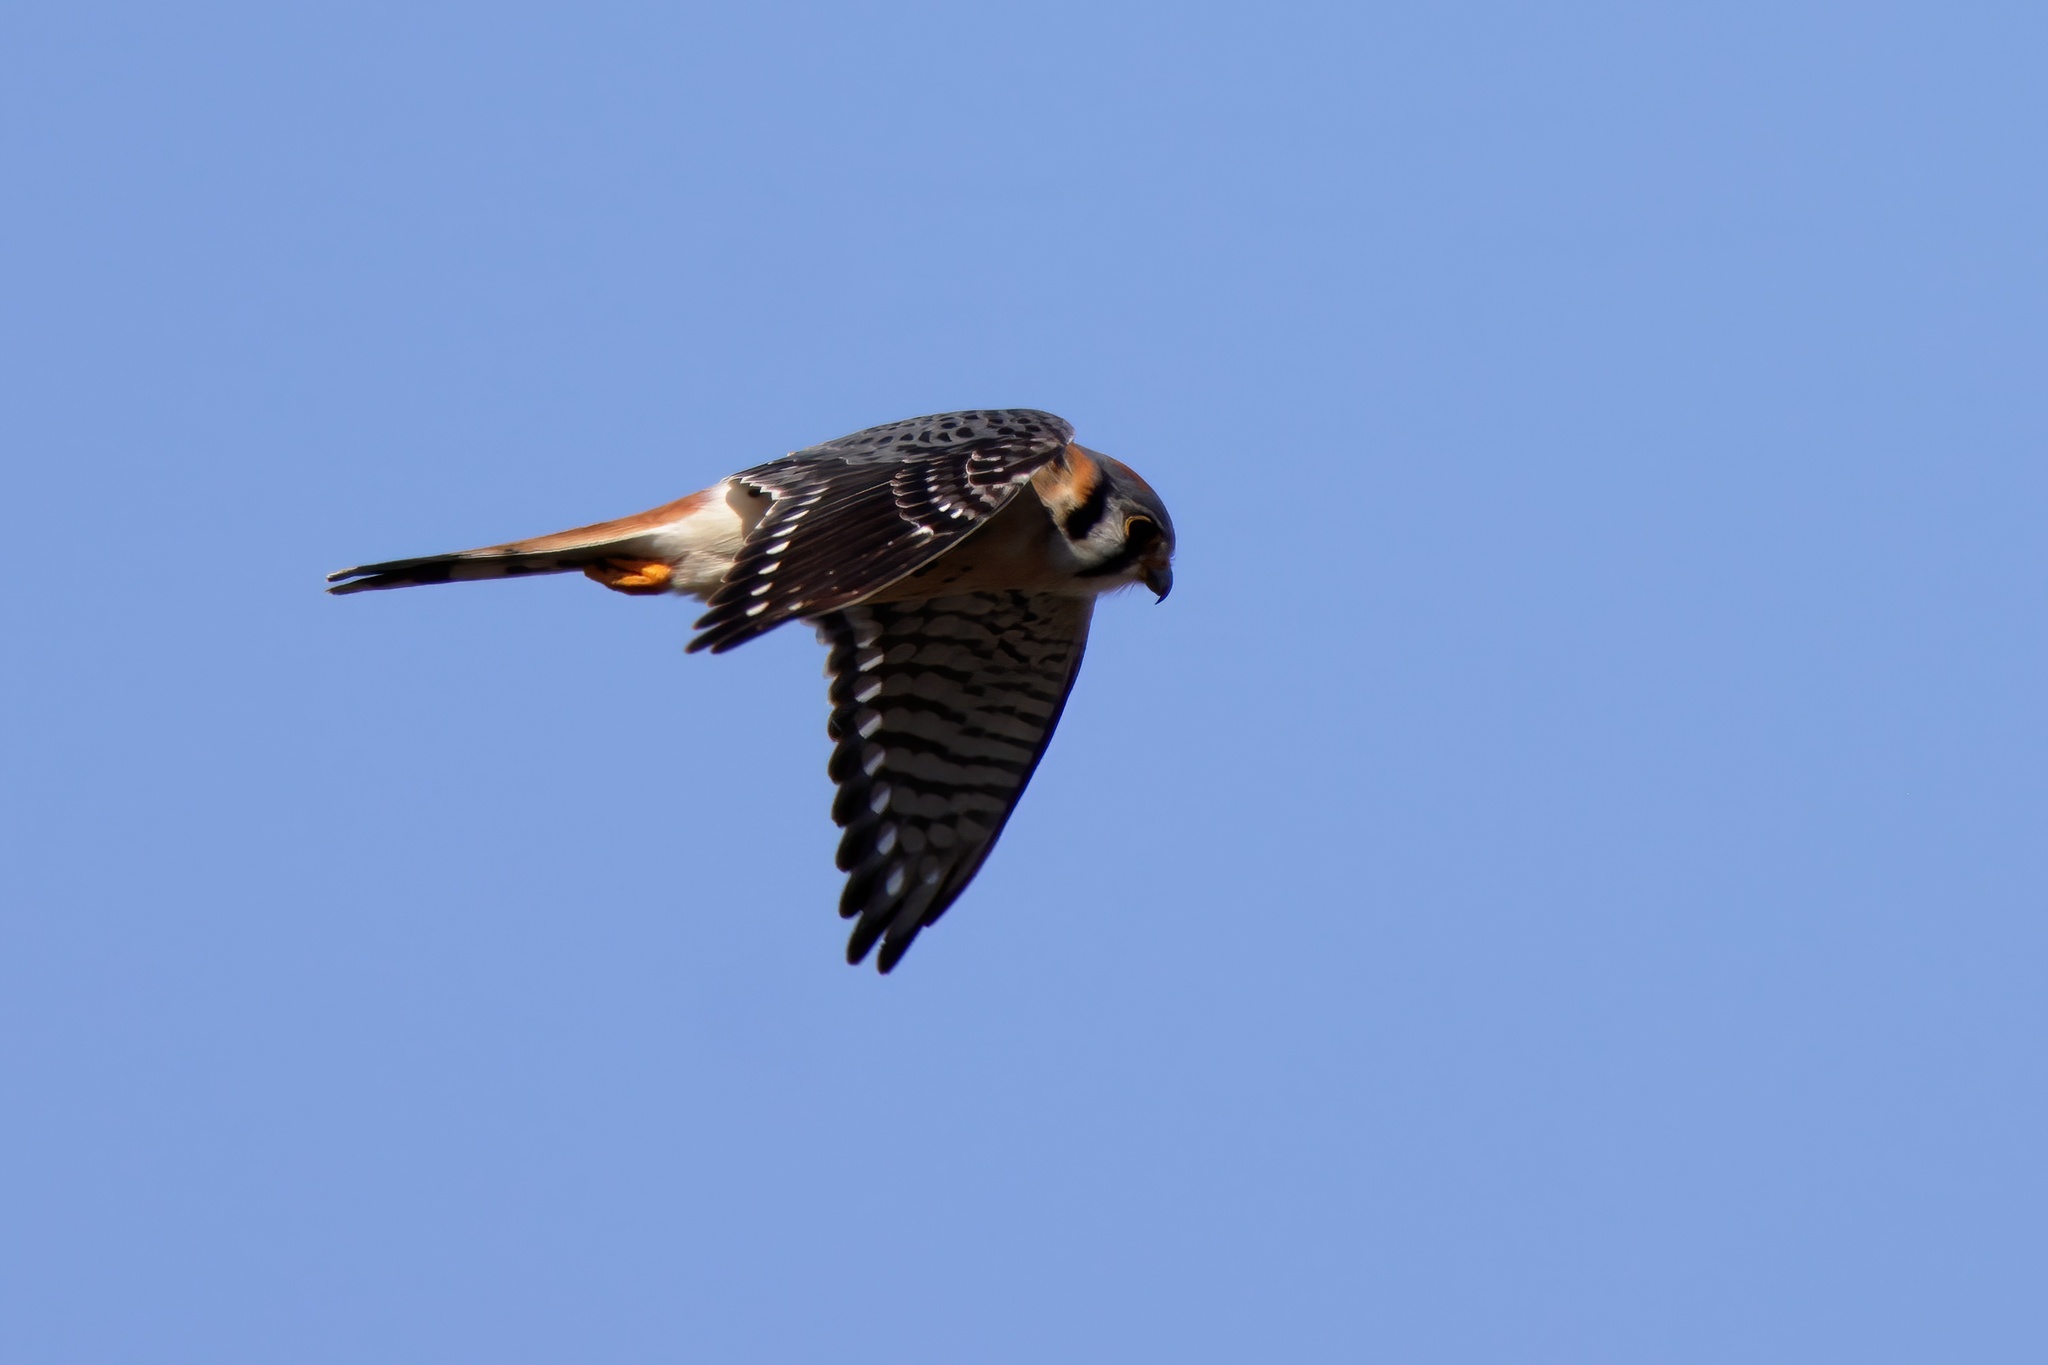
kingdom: Animalia
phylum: Chordata
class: Aves
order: Falconiformes
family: Falconidae
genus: Falco
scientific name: Falco sparverius
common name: American kestrel
